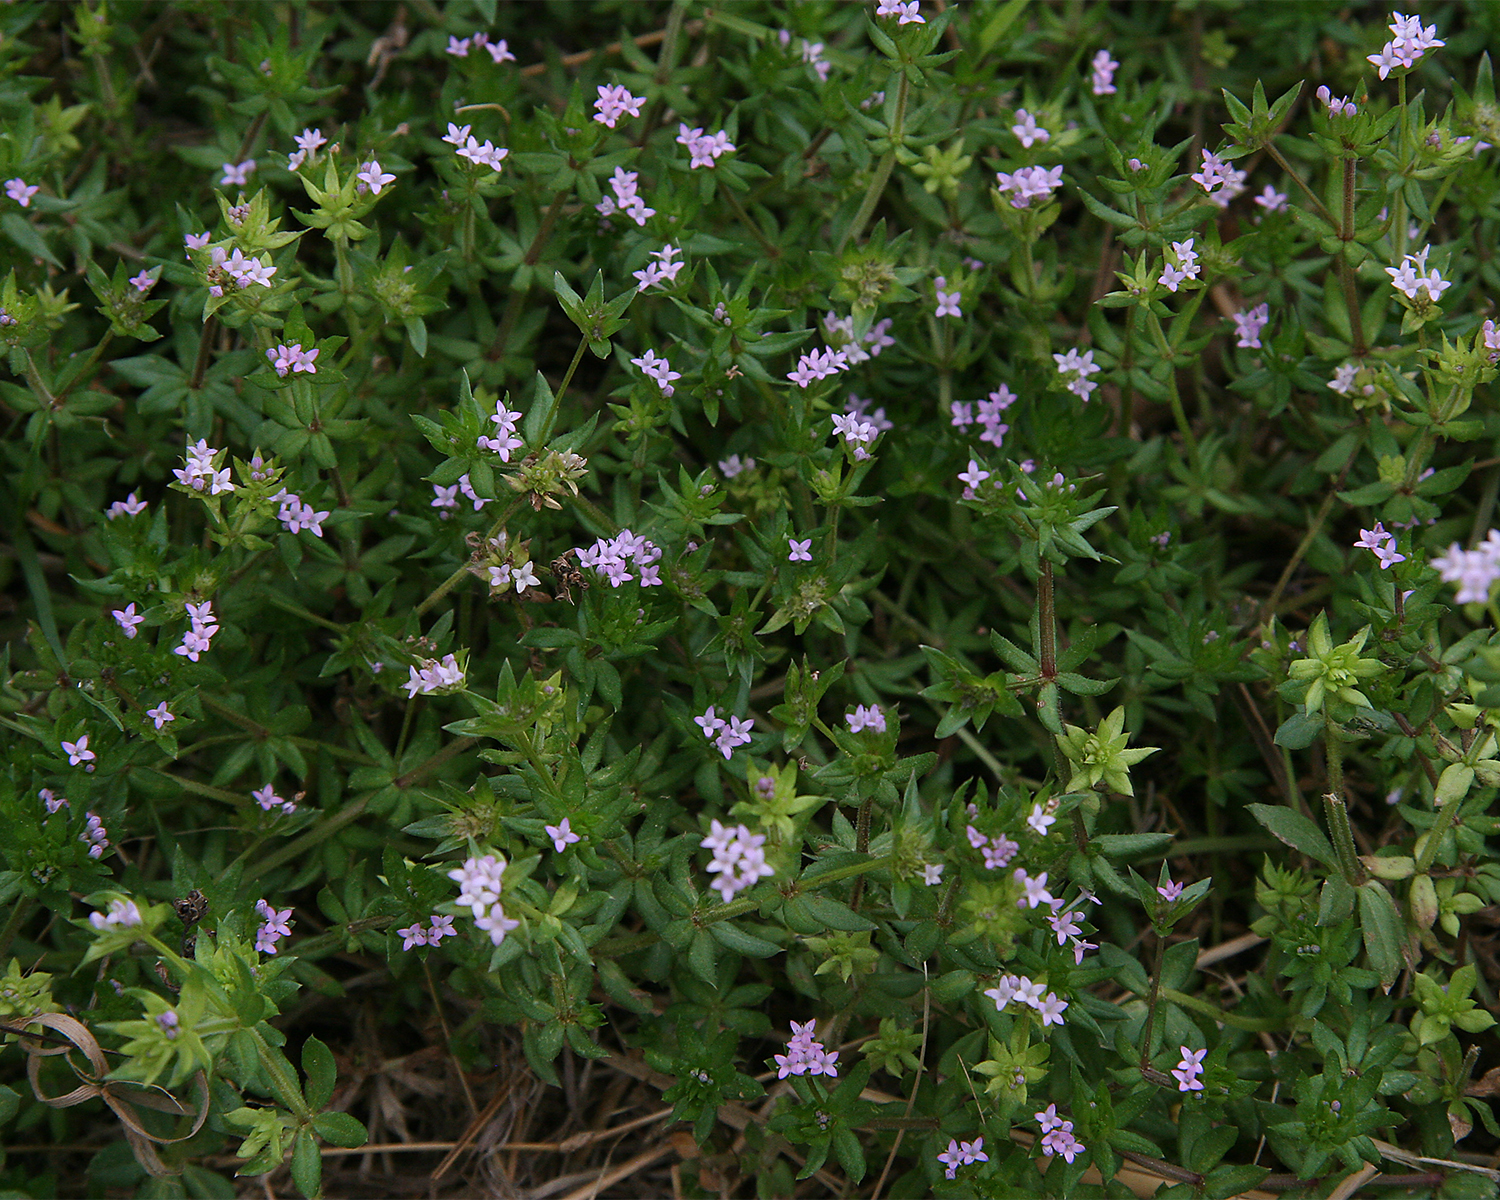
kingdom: Plantae
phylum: Tracheophyta
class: Magnoliopsida
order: Gentianales
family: Rubiaceae
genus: Sherardia
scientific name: Sherardia arvensis
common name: Field madder
